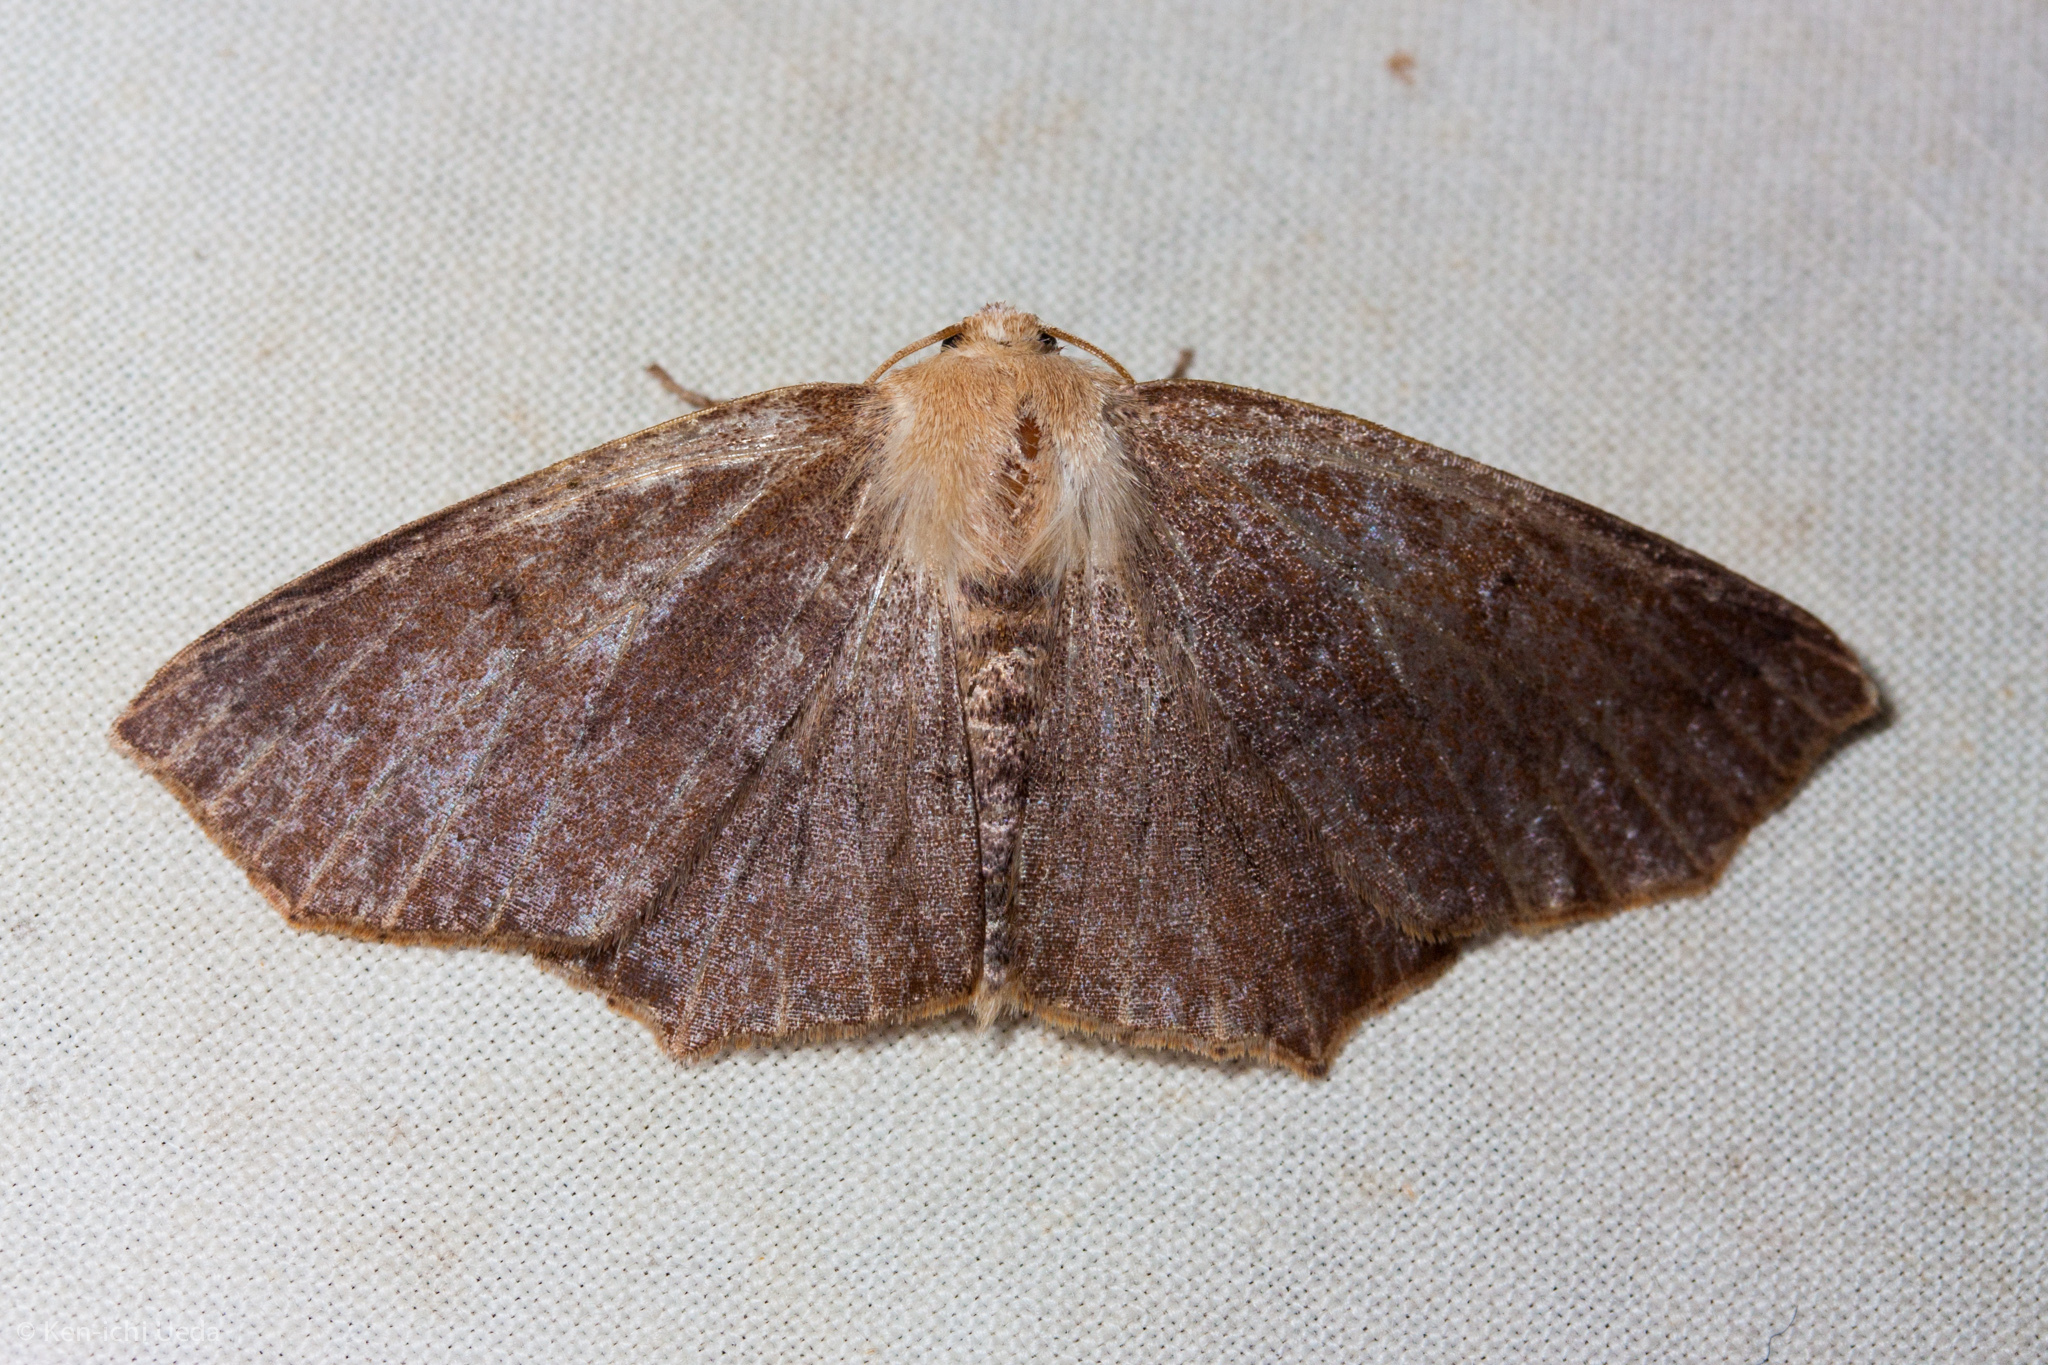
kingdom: Animalia
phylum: Arthropoda
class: Insecta
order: Lepidoptera
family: Geometridae
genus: Sabulodes
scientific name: Sabulodes aegrotata
